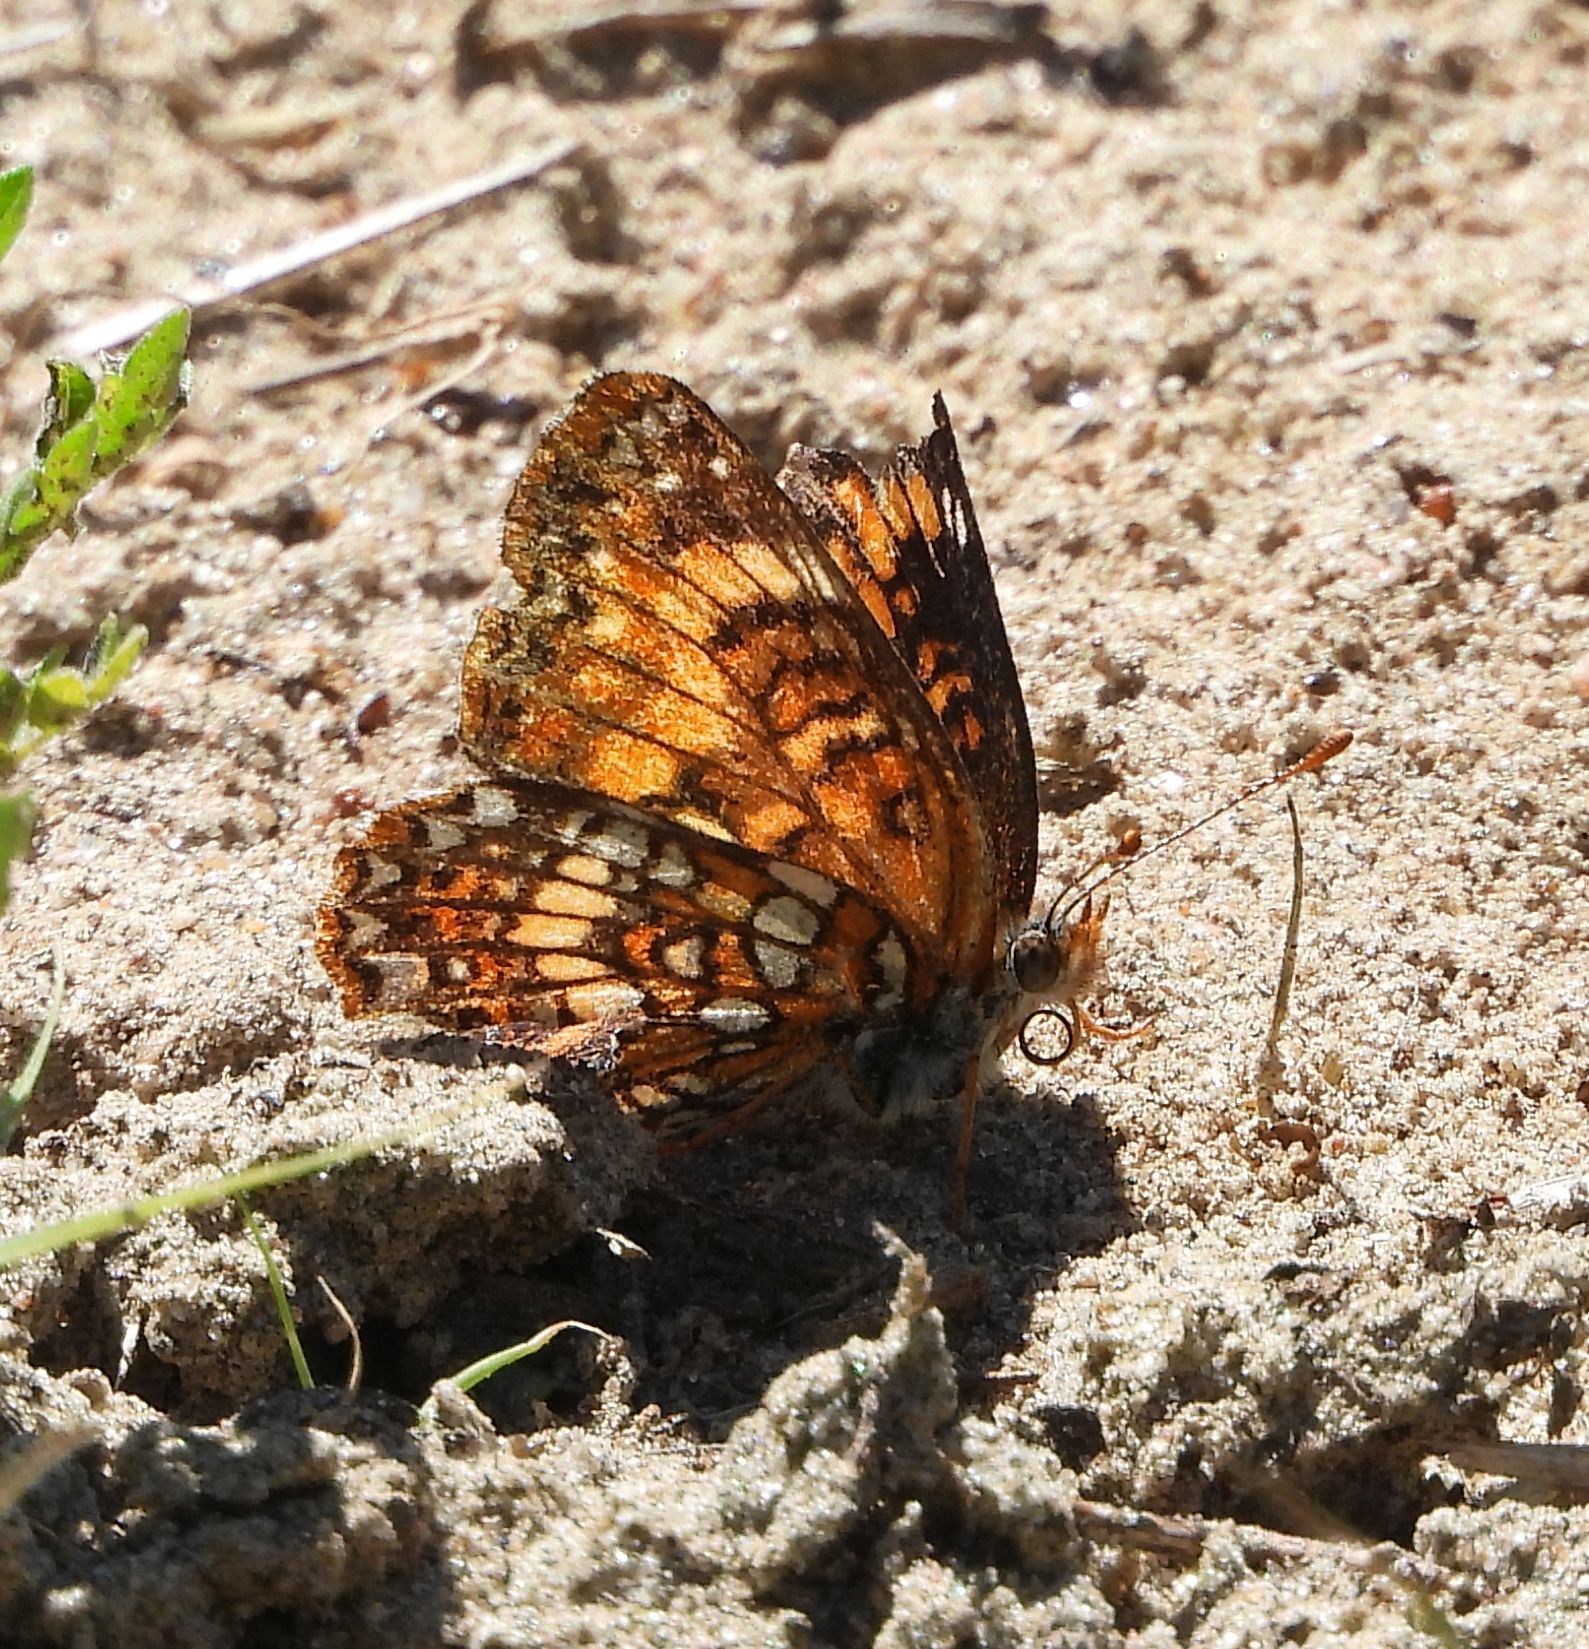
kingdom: Animalia
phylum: Arthropoda
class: Insecta
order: Lepidoptera
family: Nymphalidae
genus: Chlosyne
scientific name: Chlosyne harrisii
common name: Harris's checkerspot
